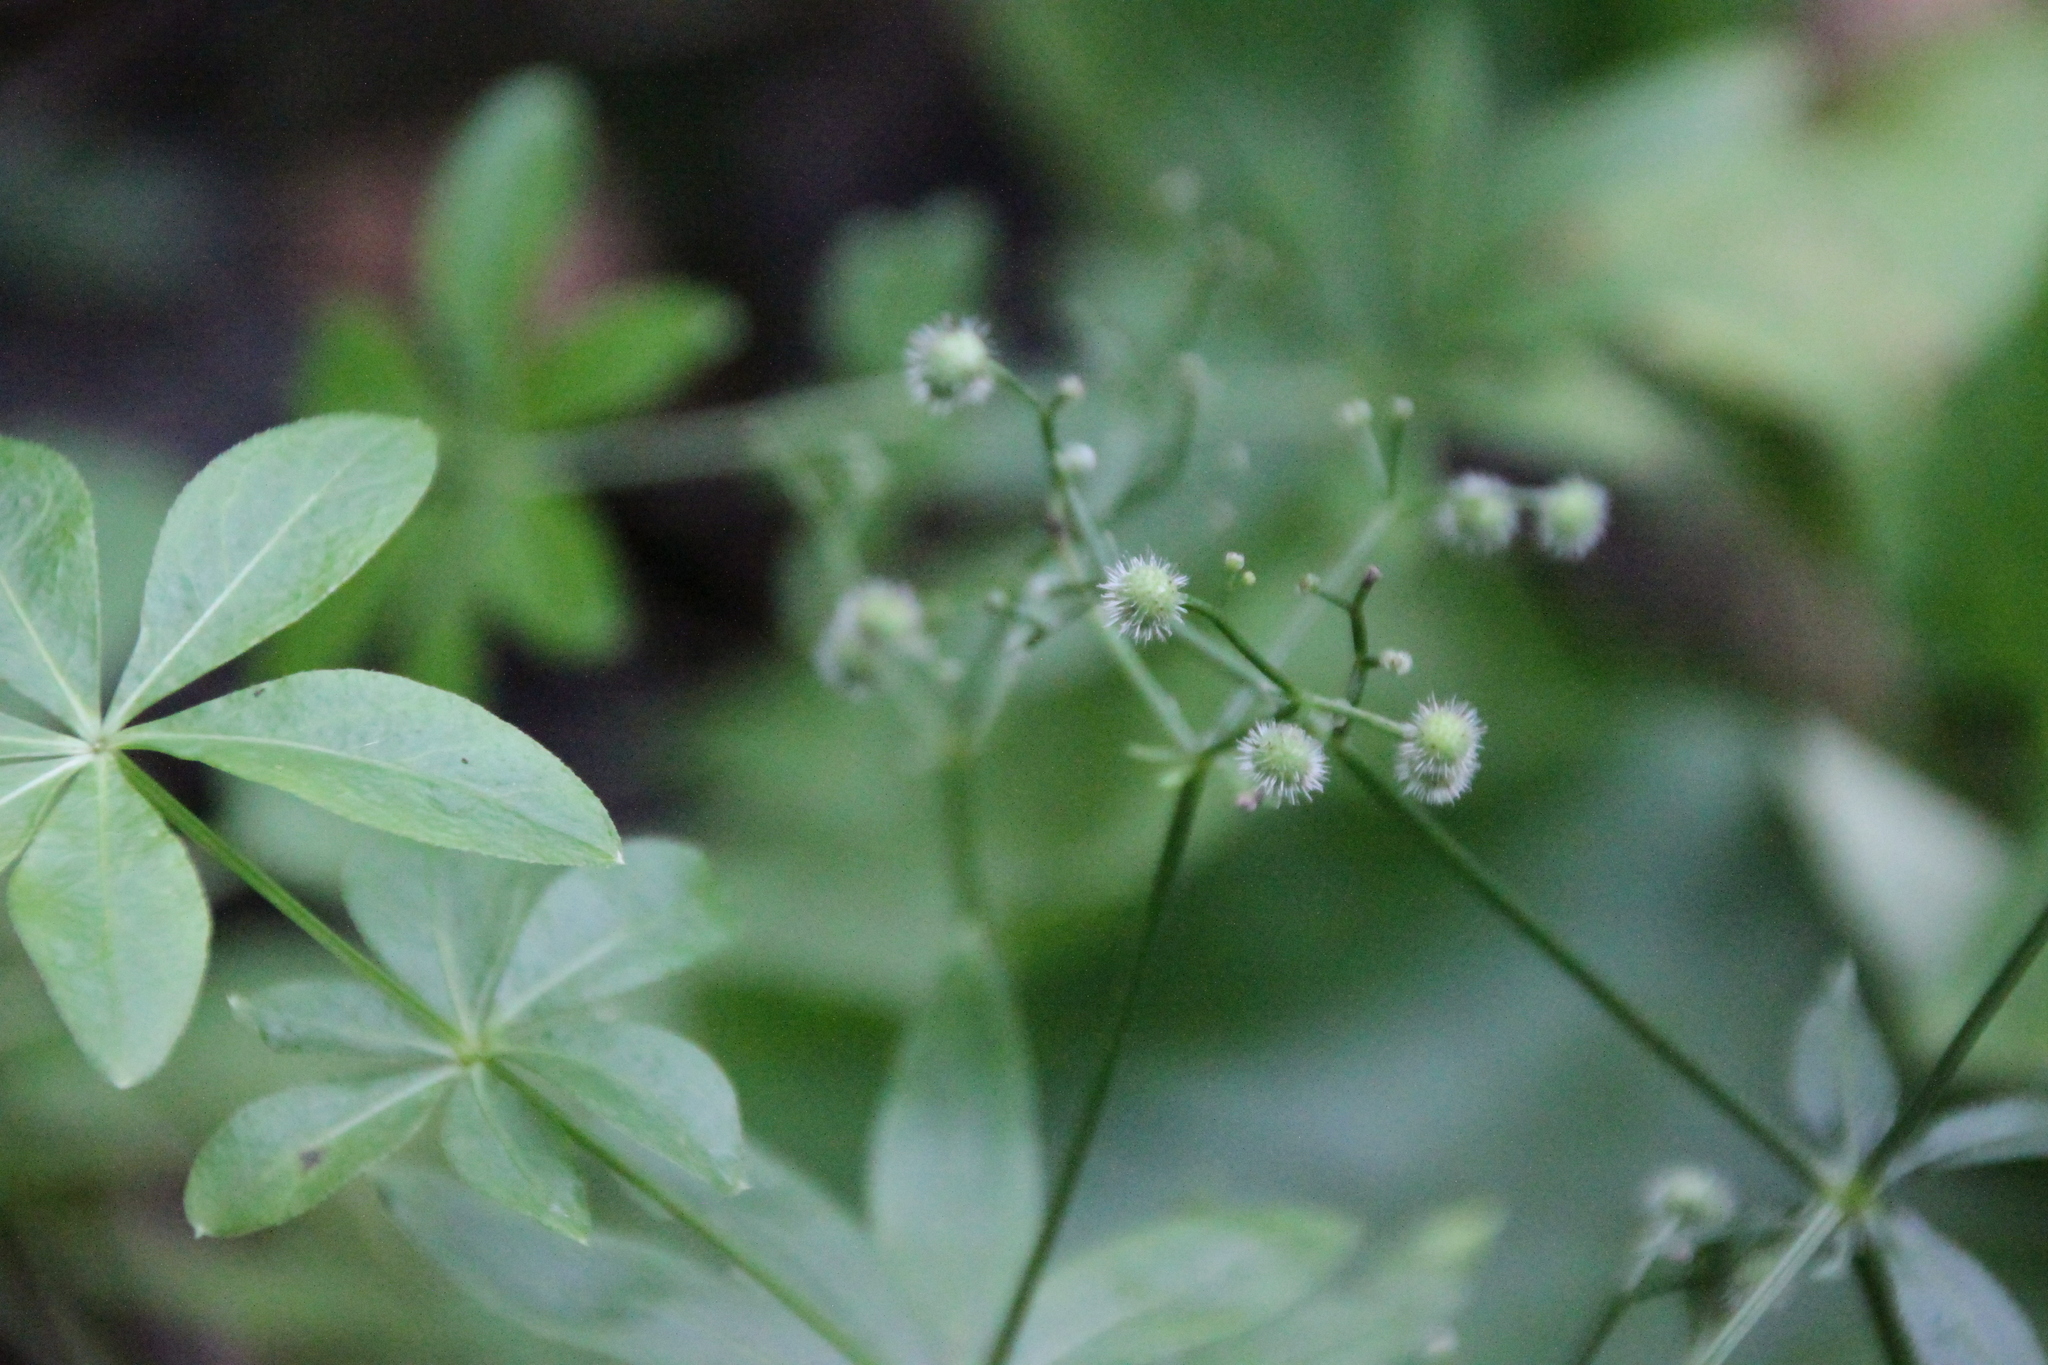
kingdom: Plantae
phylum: Tracheophyta
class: Magnoliopsida
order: Gentianales
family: Rubiaceae
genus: Galium
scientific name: Galium odoratum
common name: Sweet woodruff
